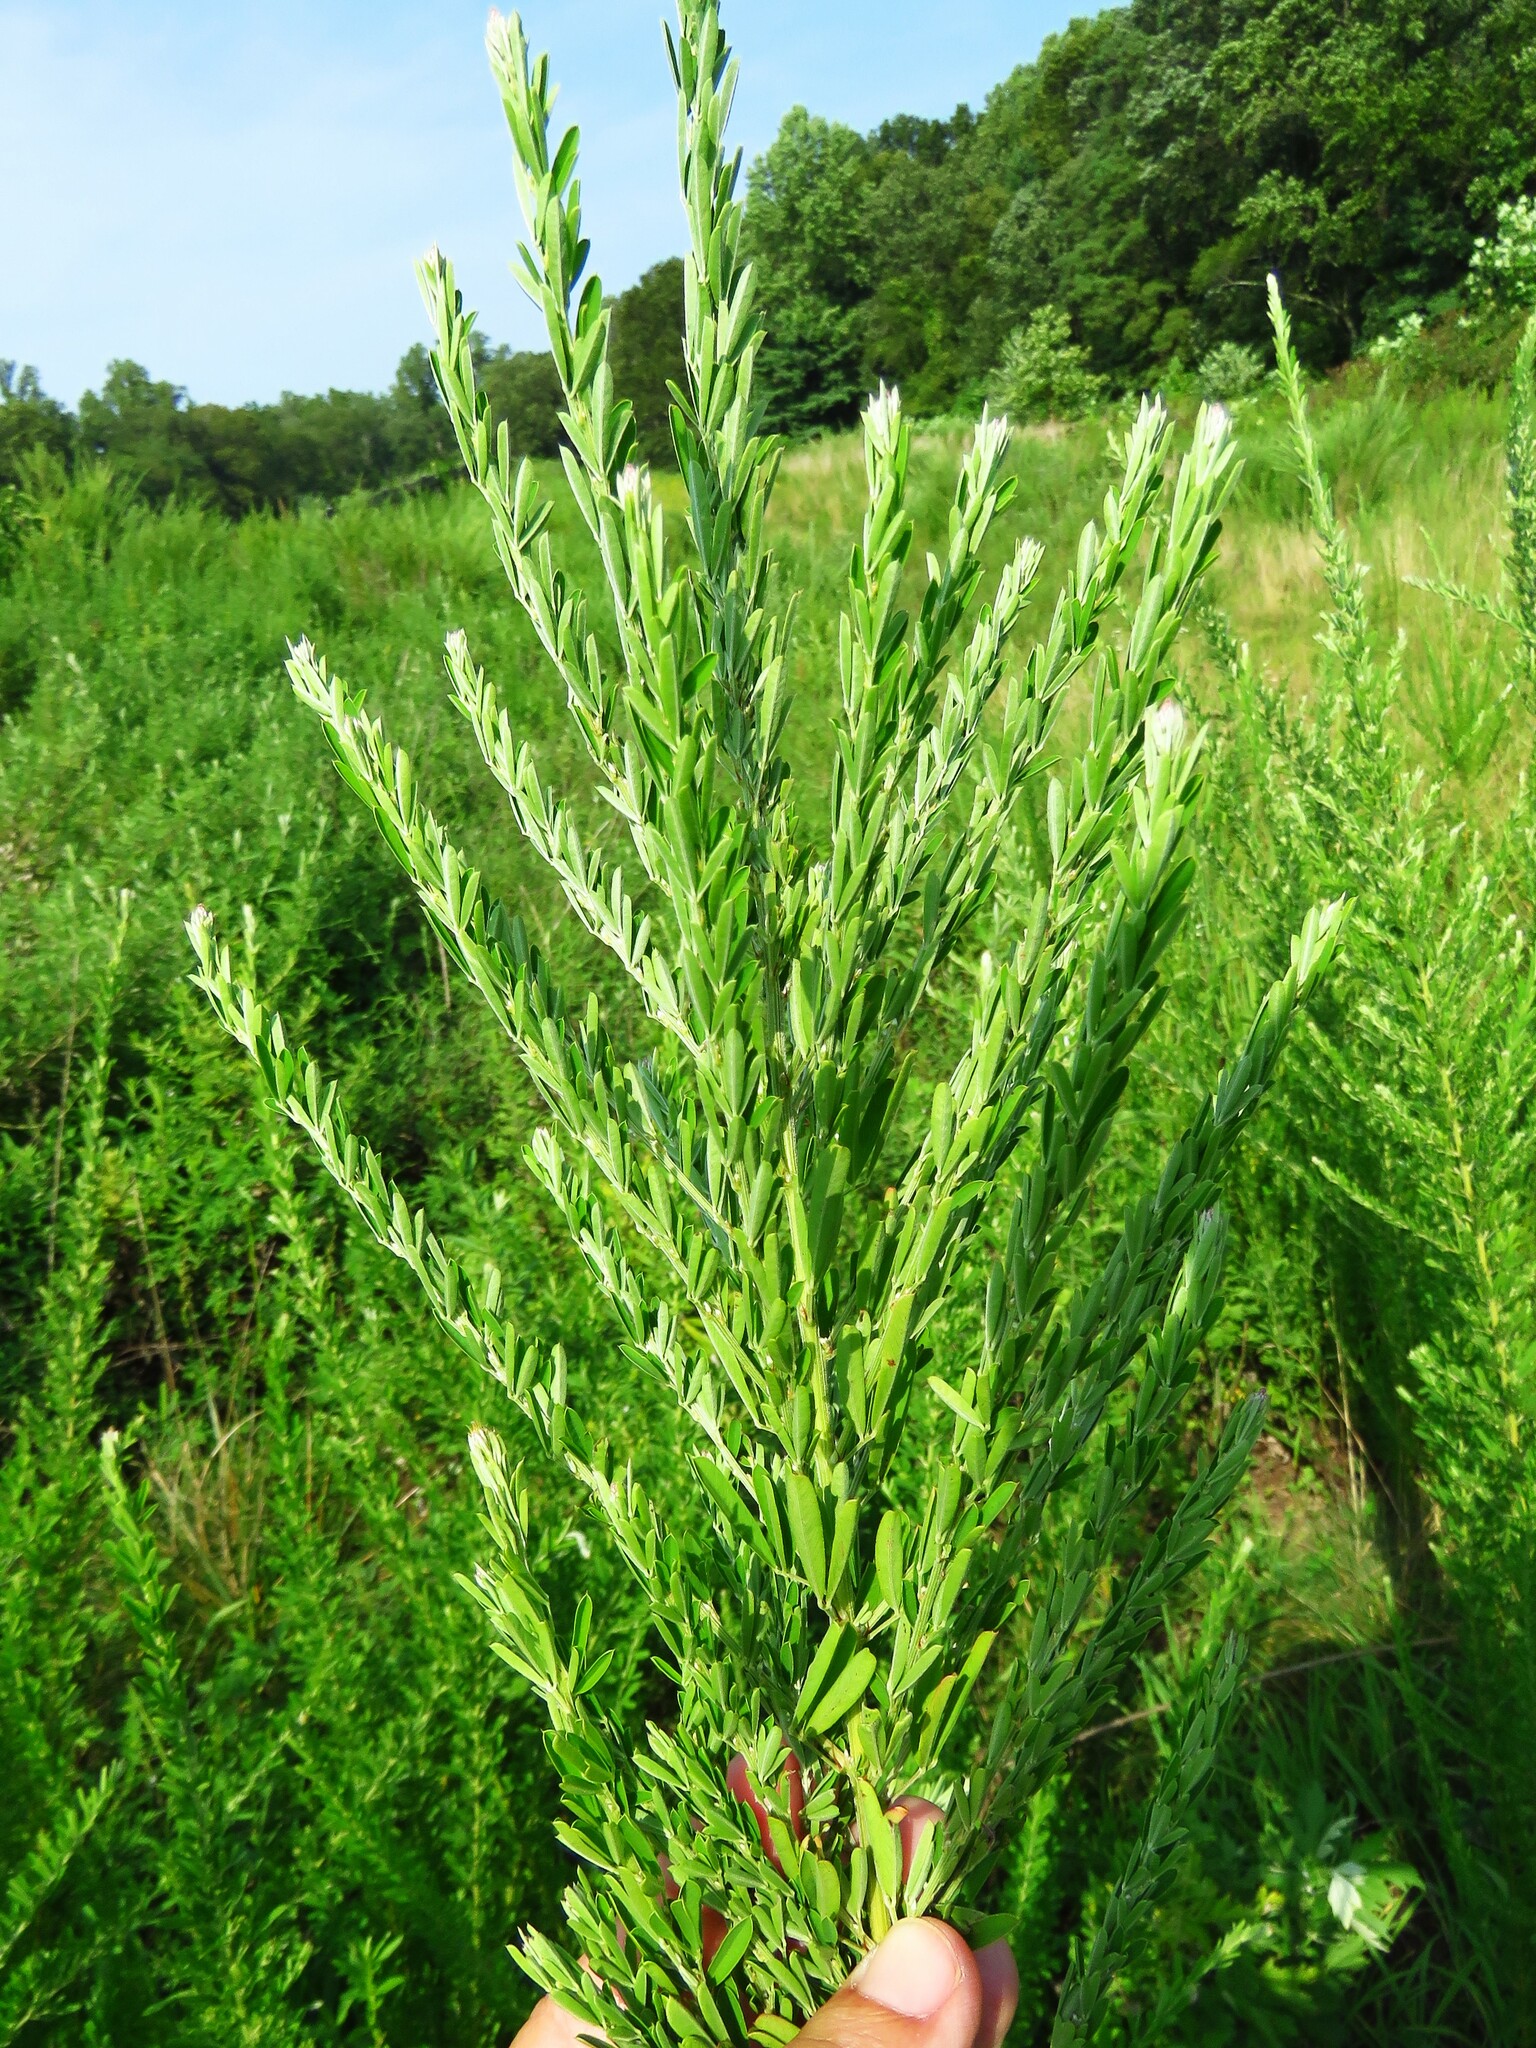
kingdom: Plantae
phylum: Tracheophyta
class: Magnoliopsida
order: Fabales
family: Fabaceae
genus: Lespedeza
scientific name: Lespedeza cuneata
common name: Chinese bush-clover
